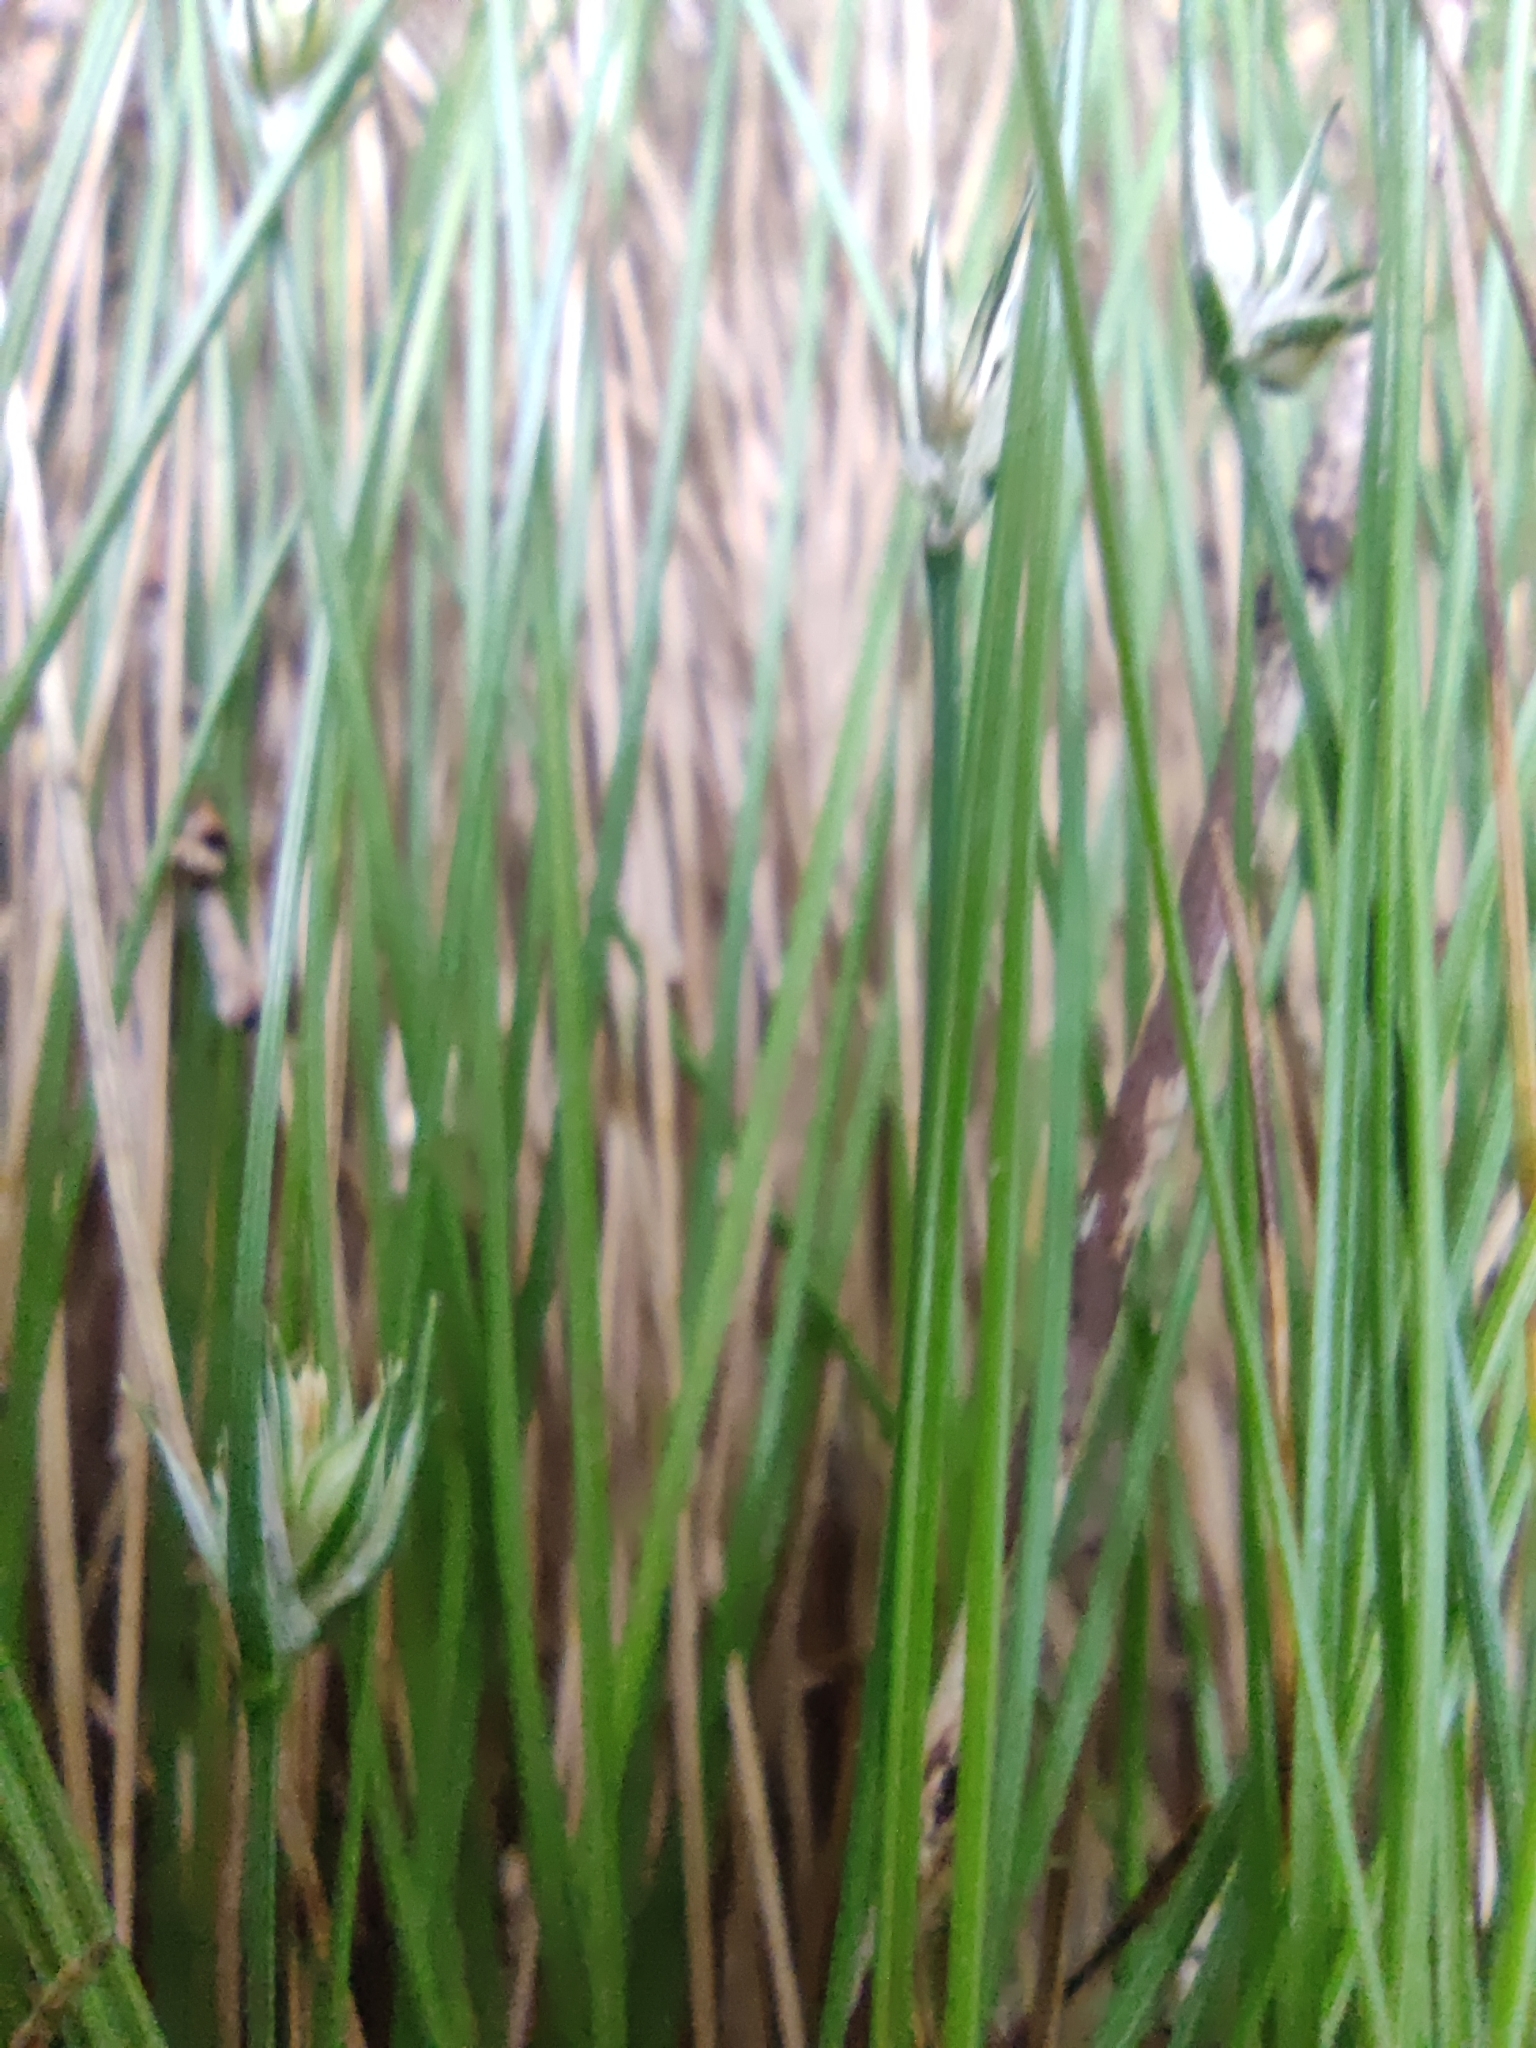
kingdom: Plantae
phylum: Tracheophyta
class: Liliopsida
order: Poales
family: Cyperaceae
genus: Carex
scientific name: Carex patagonica
